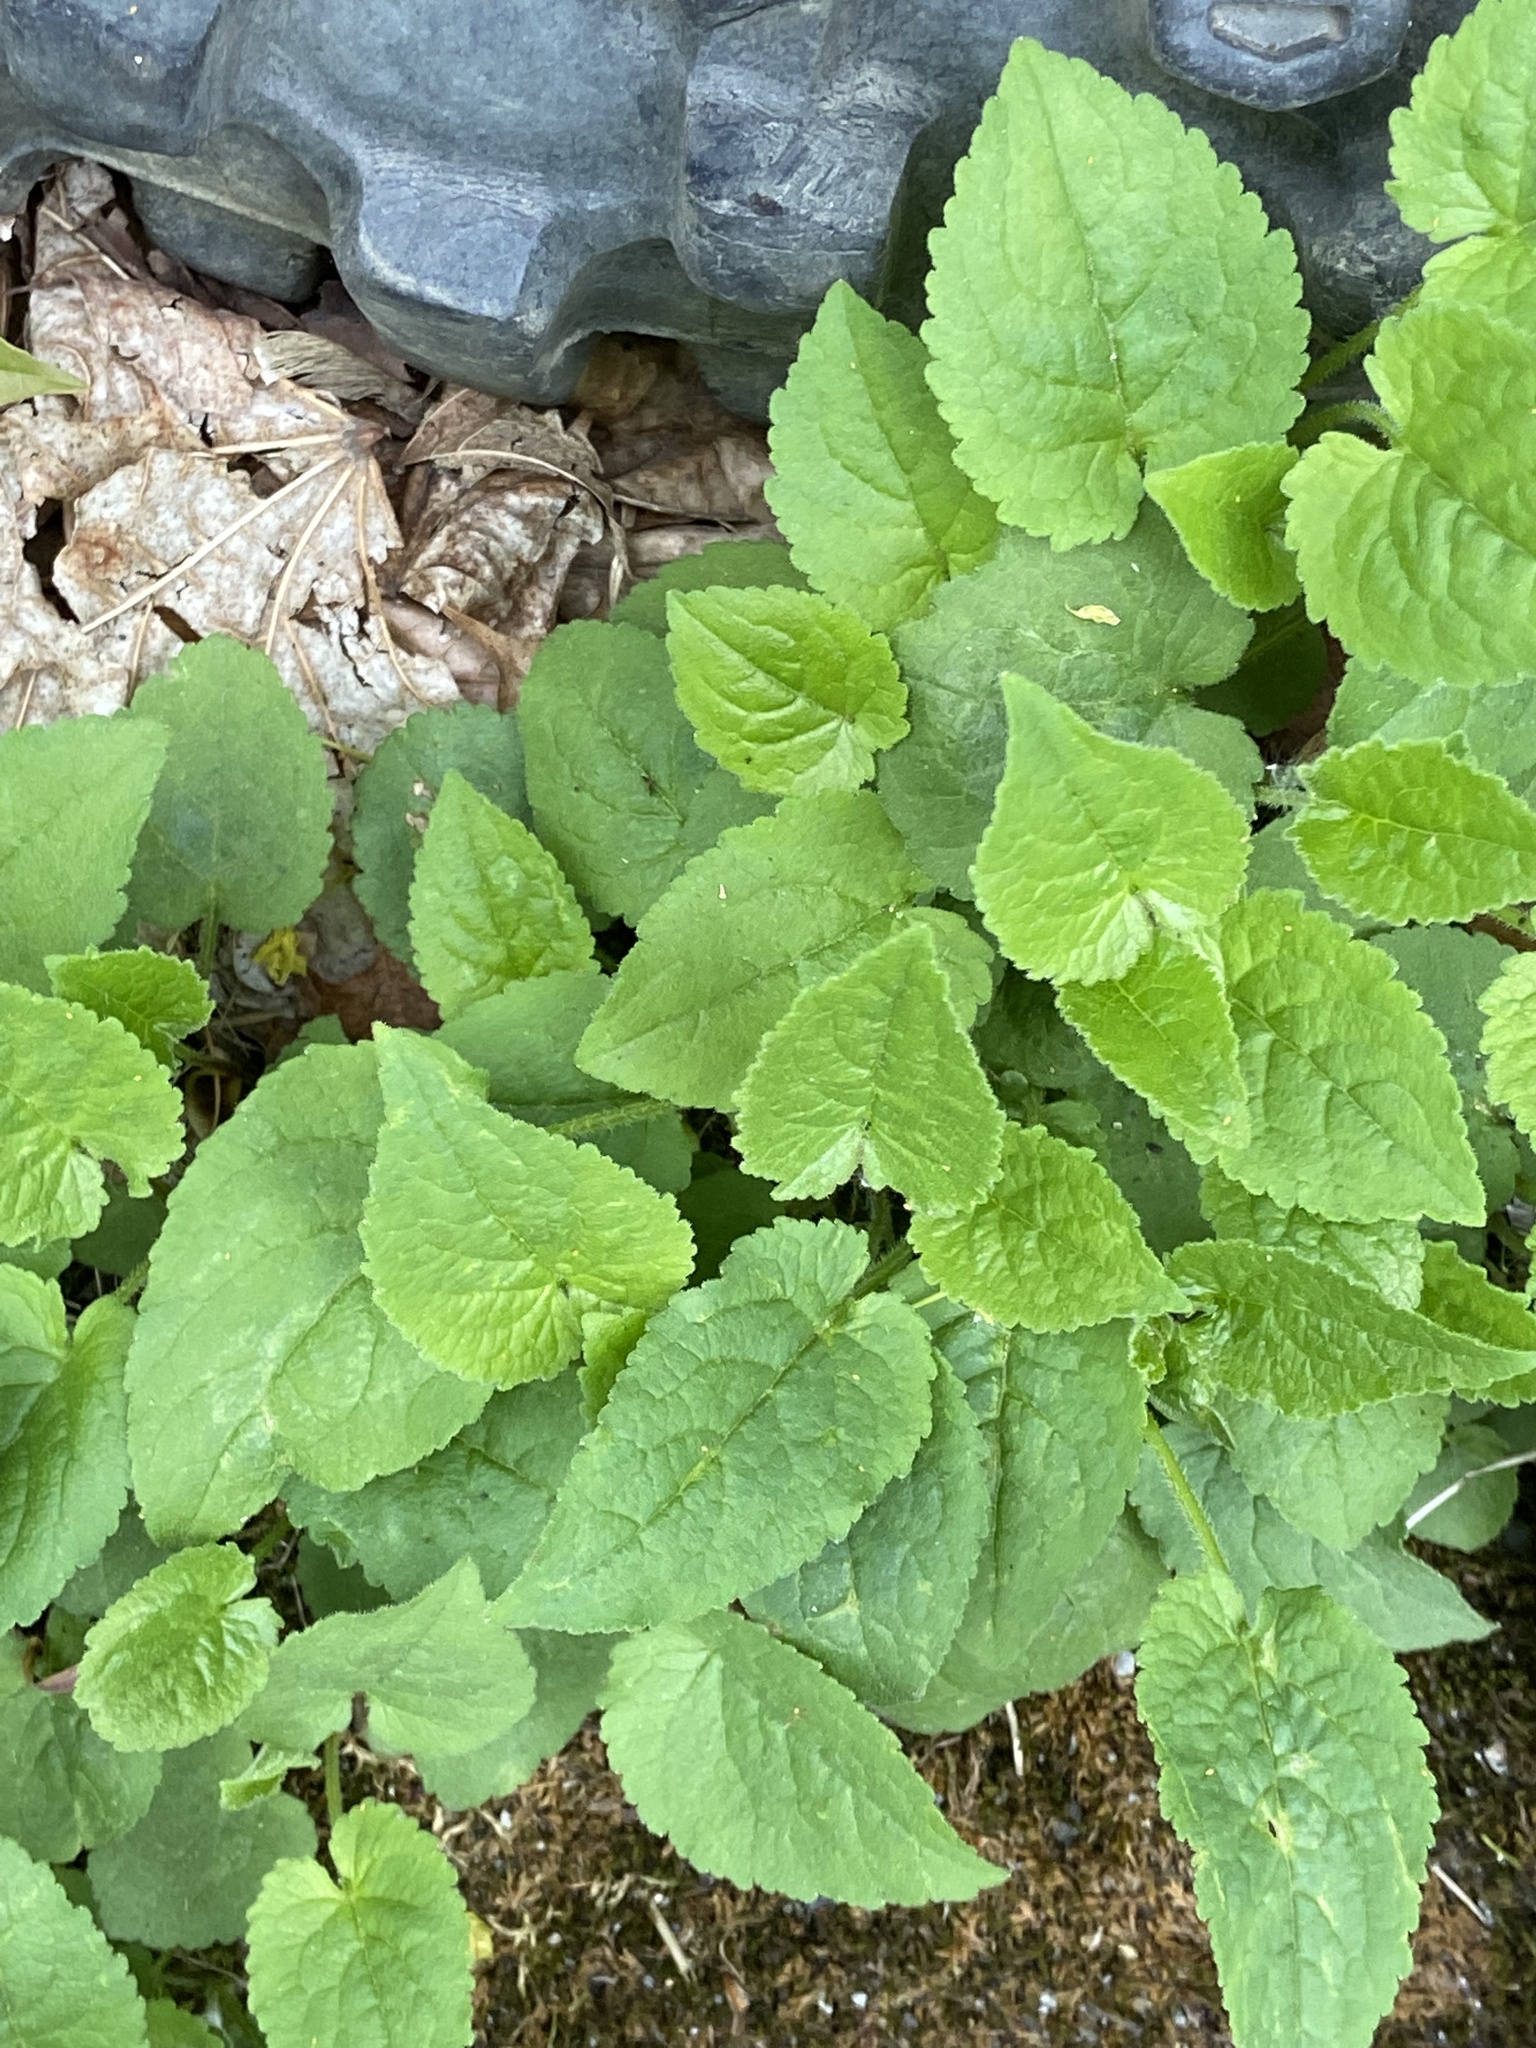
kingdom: Plantae
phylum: Tracheophyta
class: Magnoliopsida
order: Asterales
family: Campanulaceae
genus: Campanula
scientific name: Campanula rapunculoides
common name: Creeping bellflower
